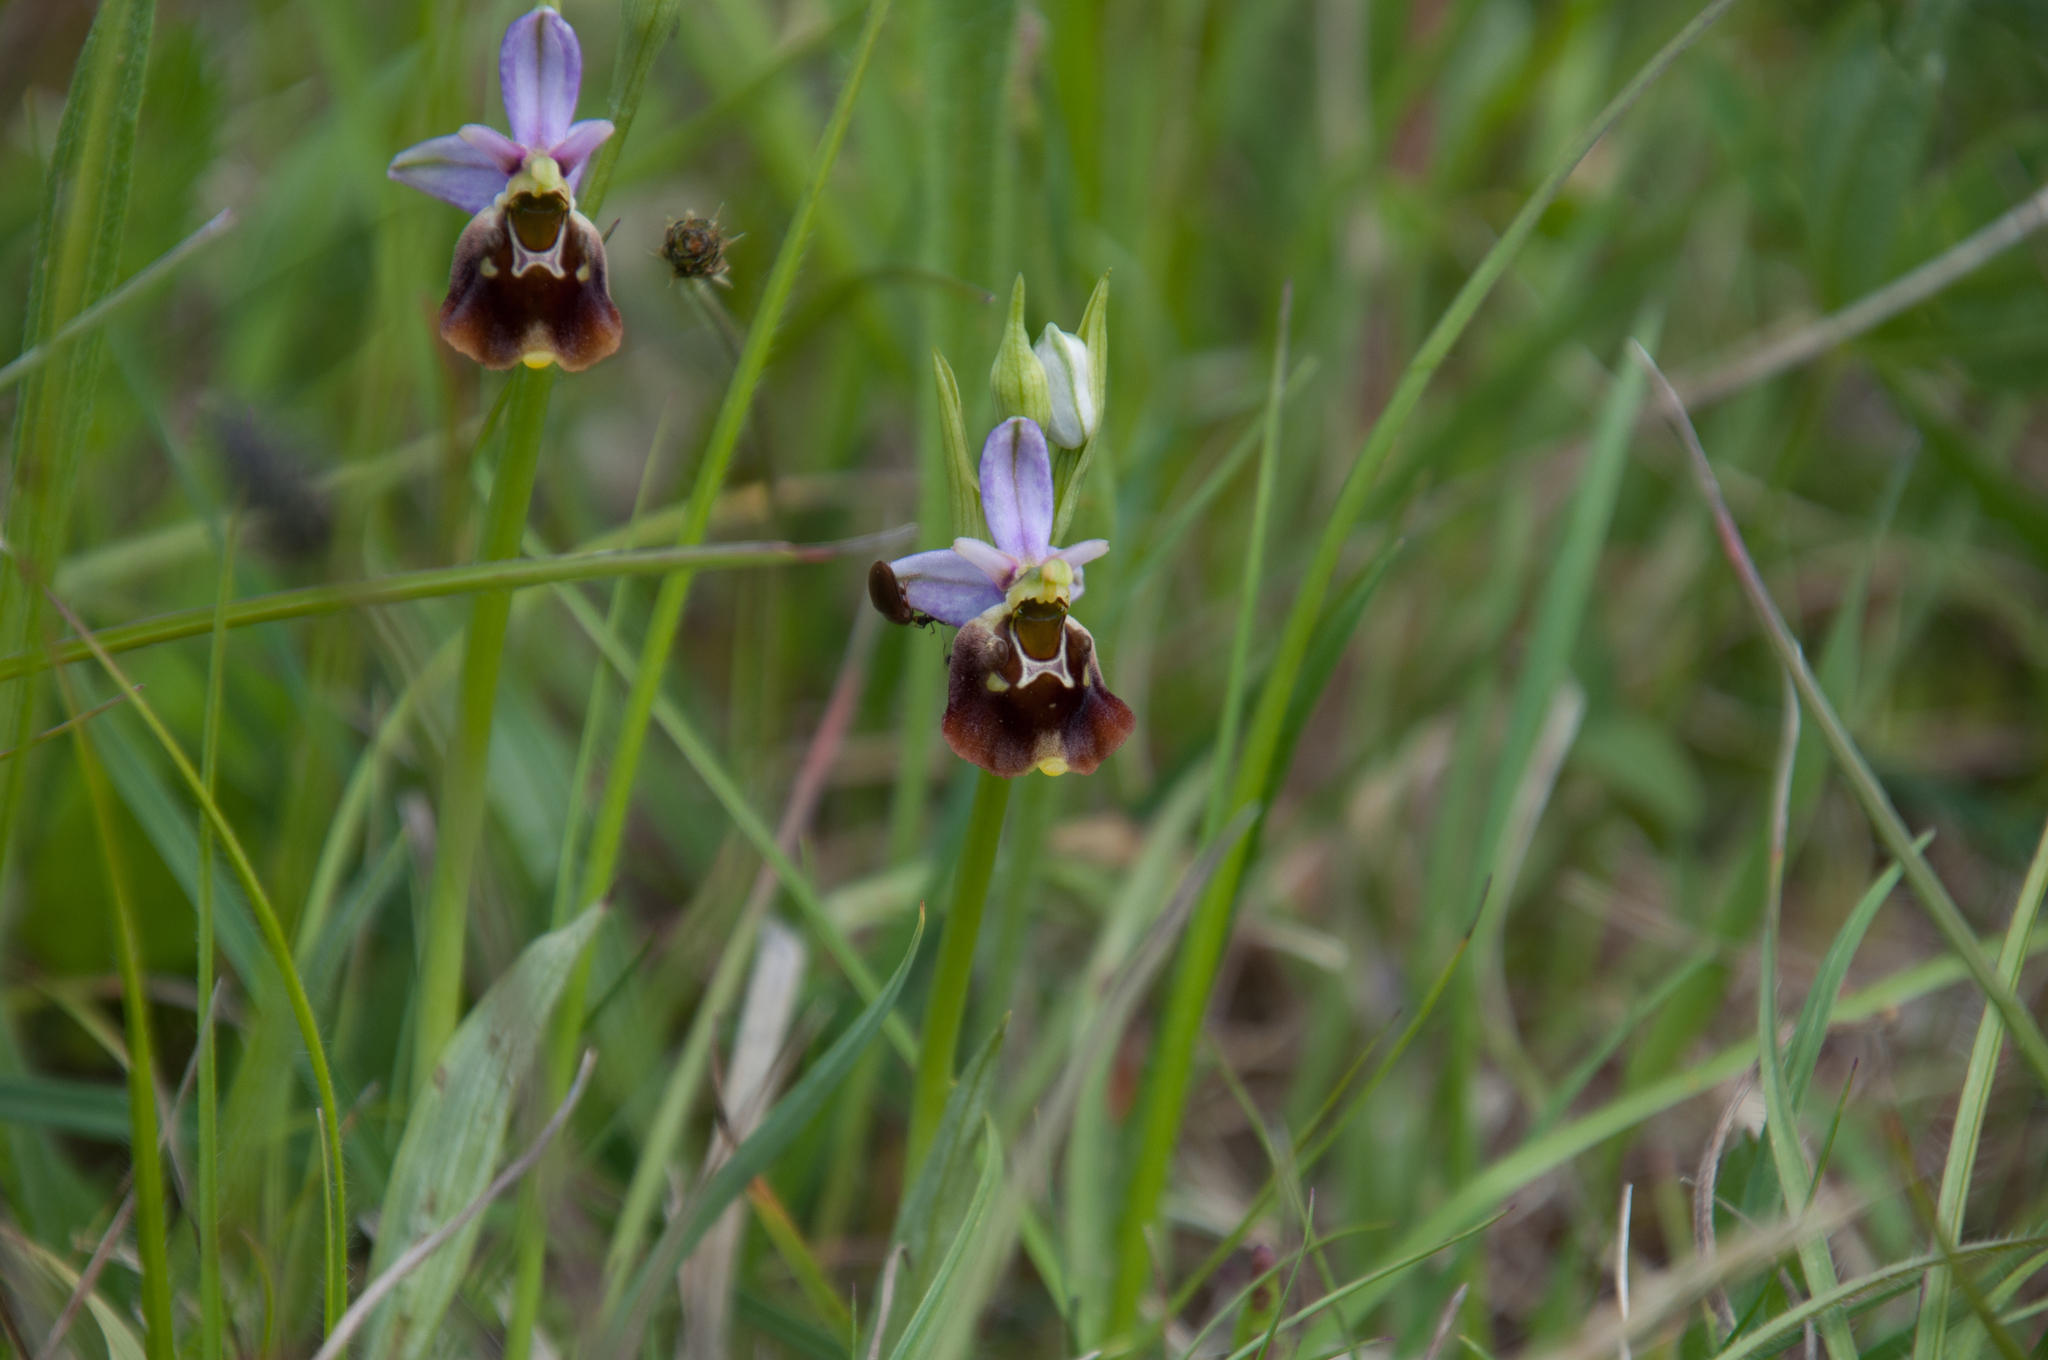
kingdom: Plantae
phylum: Tracheophyta
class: Liliopsida
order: Asparagales
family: Orchidaceae
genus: Ophrys
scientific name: Ophrys holosericea
